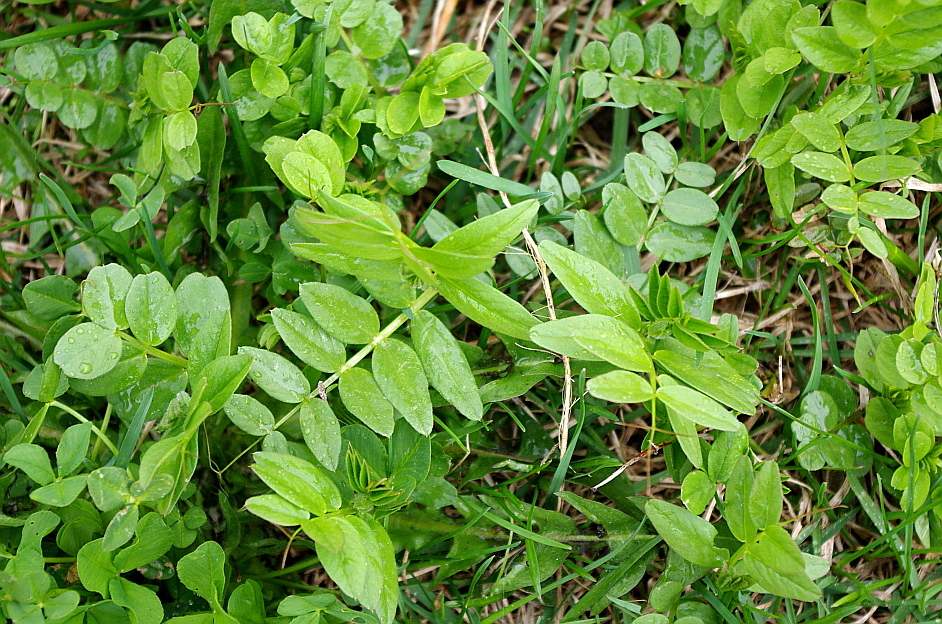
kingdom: Plantae
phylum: Tracheophyta
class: Magnoliopsida
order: Fabales
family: Fabaceae
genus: Vicia
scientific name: Vicia sepium
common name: Bush vetch
